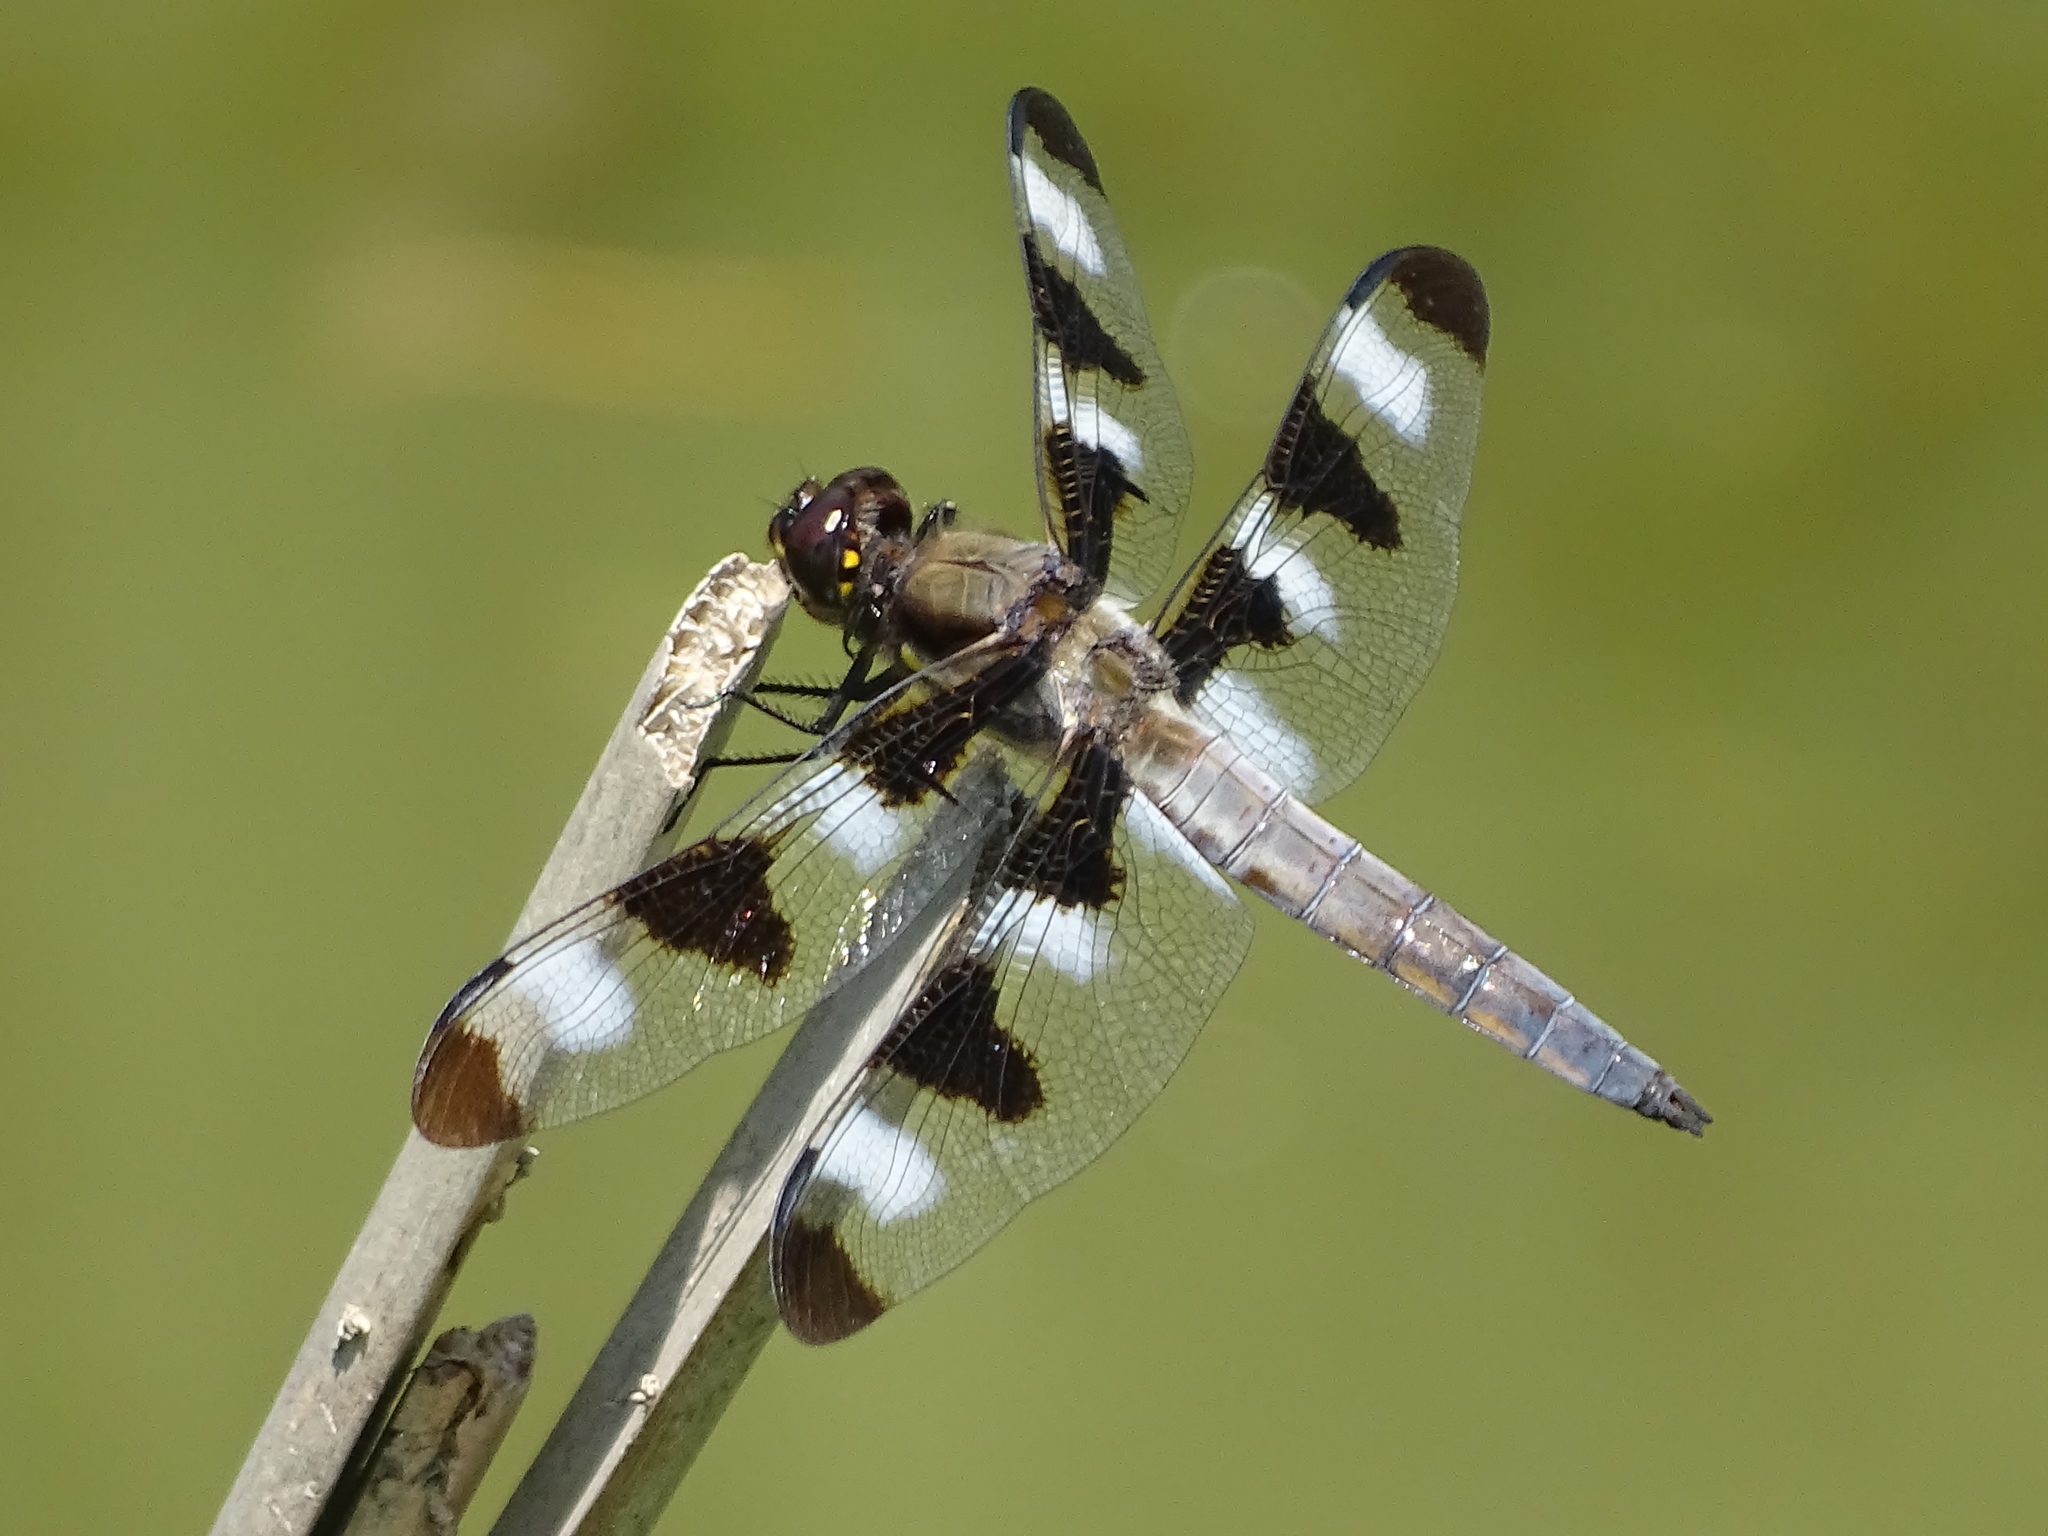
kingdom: Animalia
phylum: Arthropoda
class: Insecta
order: Odonata
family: Libellulidae
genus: Libellula
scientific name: Libellula pulchella
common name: Twelve-spotted skimmer
